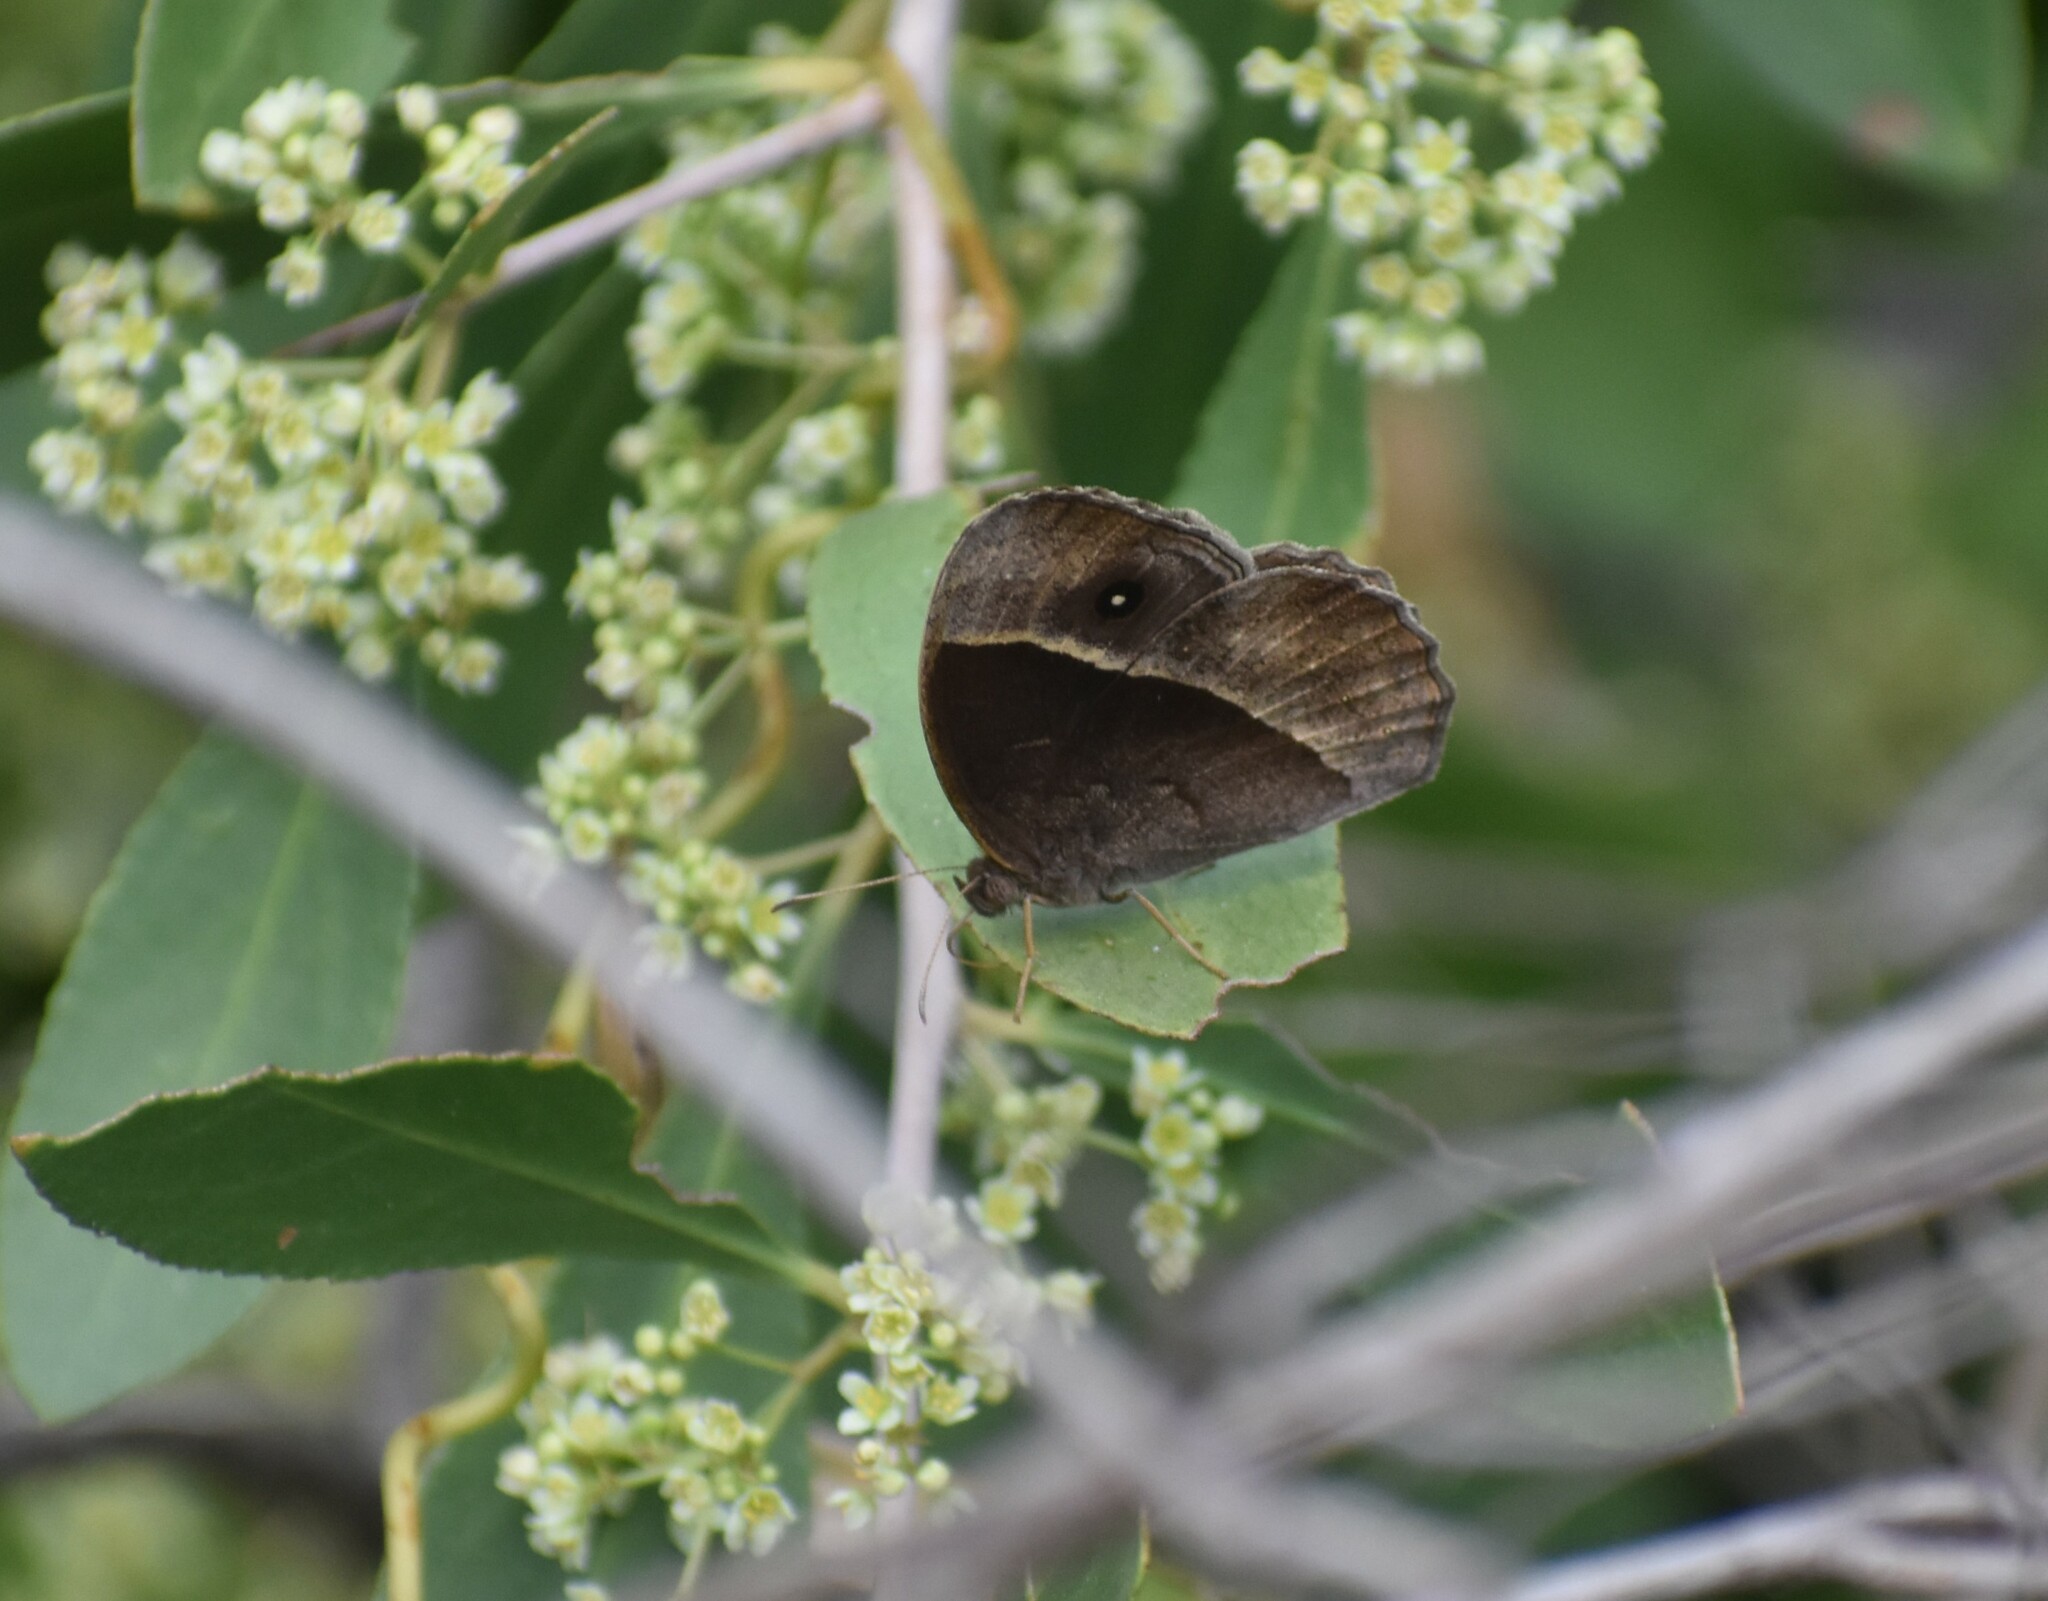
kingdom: Animalia
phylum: Arthropoda
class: Insecta
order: Lepidoptera
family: Nymphalidae
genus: Mycalesis
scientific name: Mycalesis rhacotis
